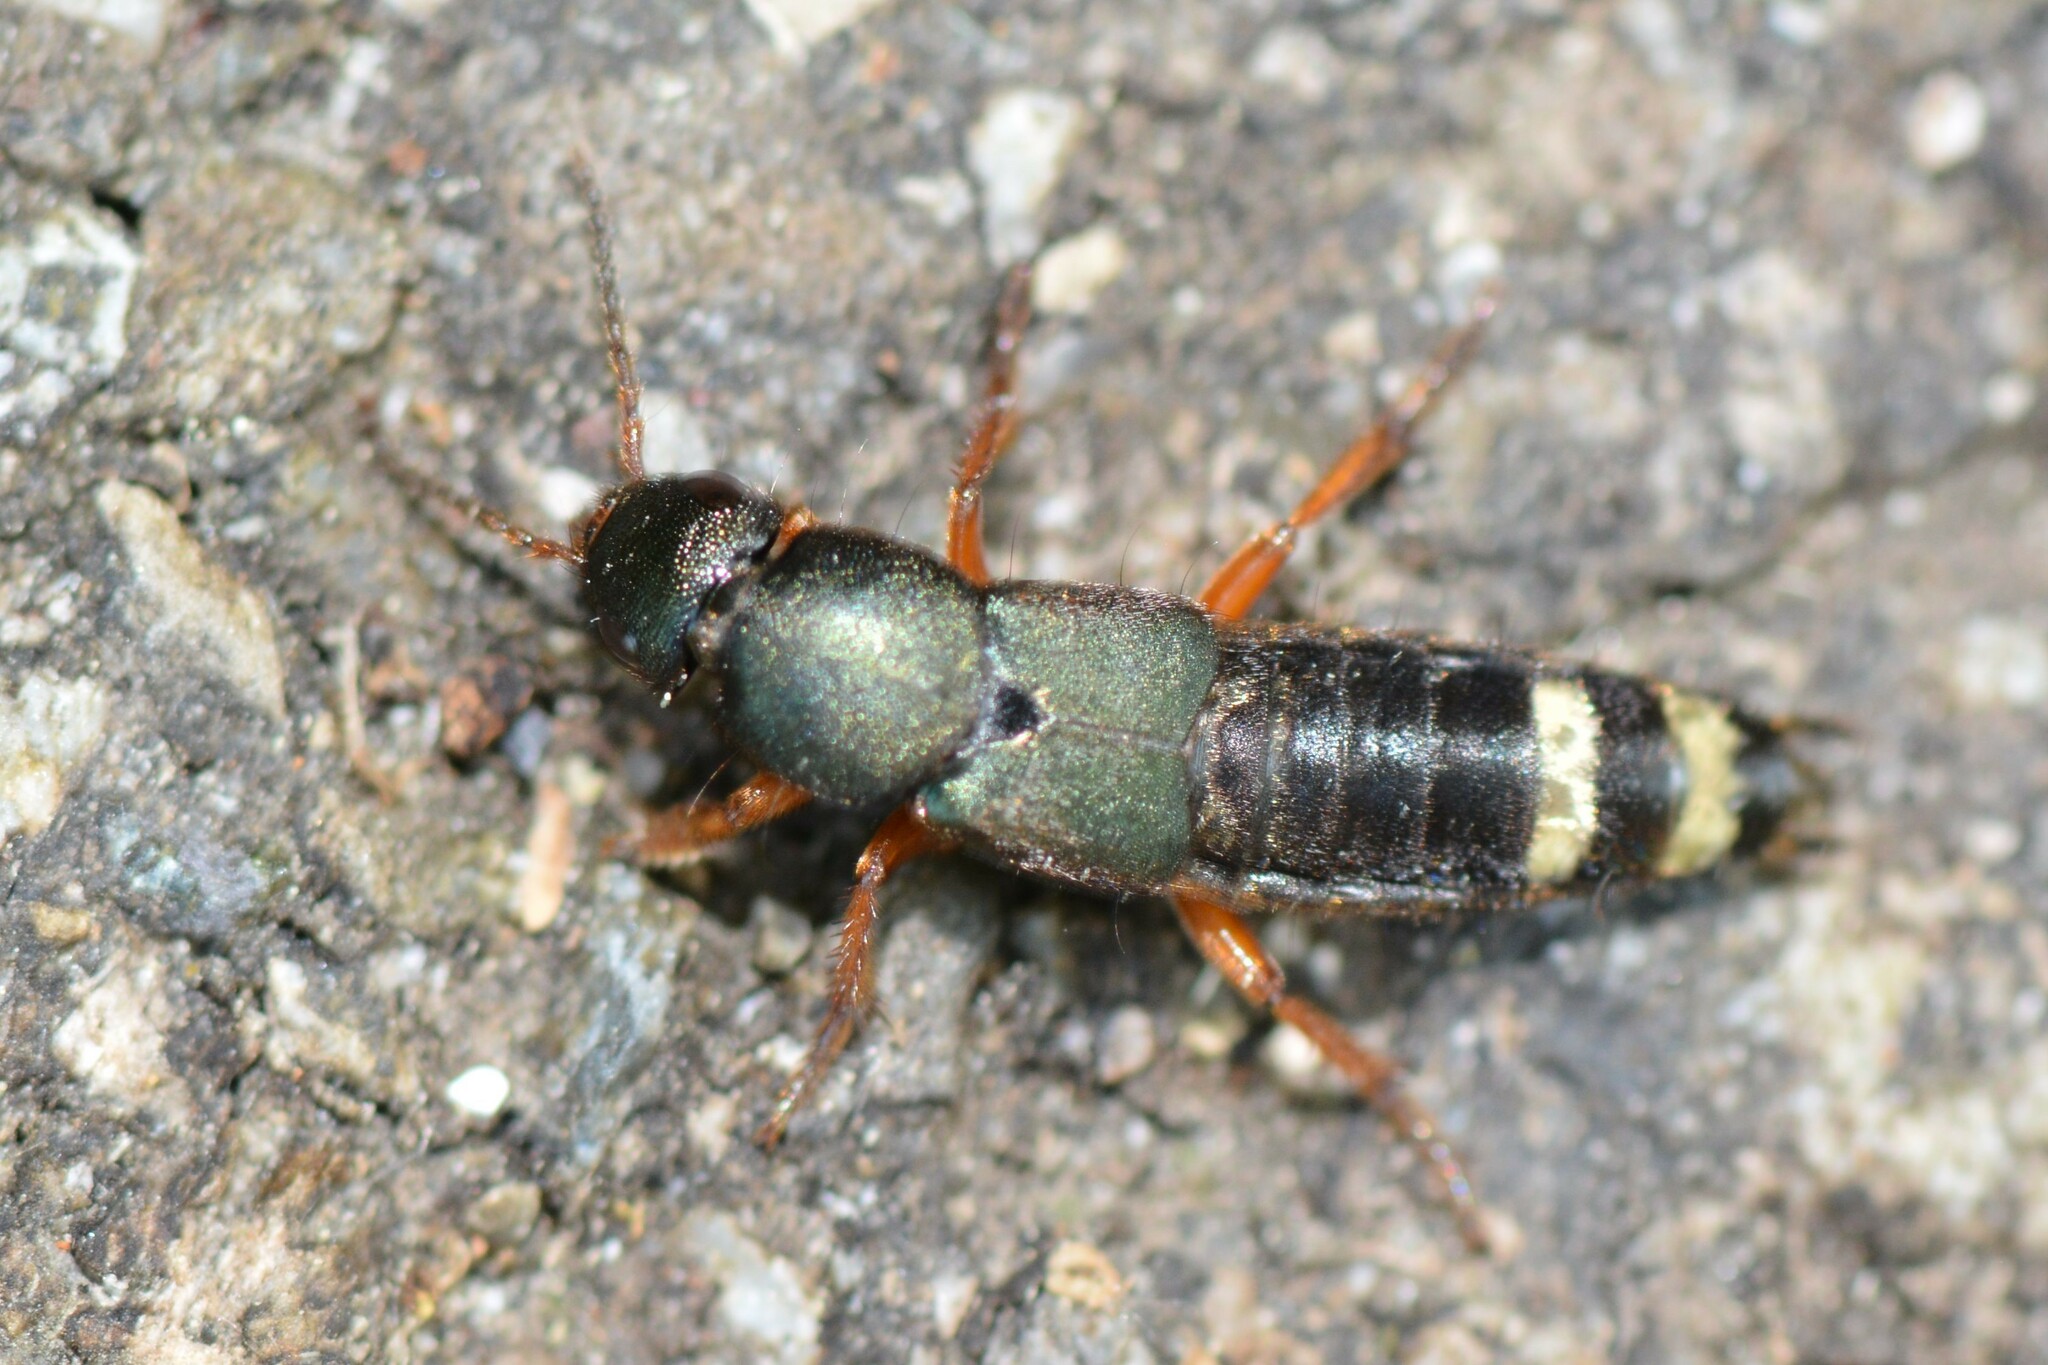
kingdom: Animalia
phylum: Arthropoda
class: Insecta
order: Coleoptera
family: Staphylinidae
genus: Platydracus
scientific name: Platydracus fulvipes
